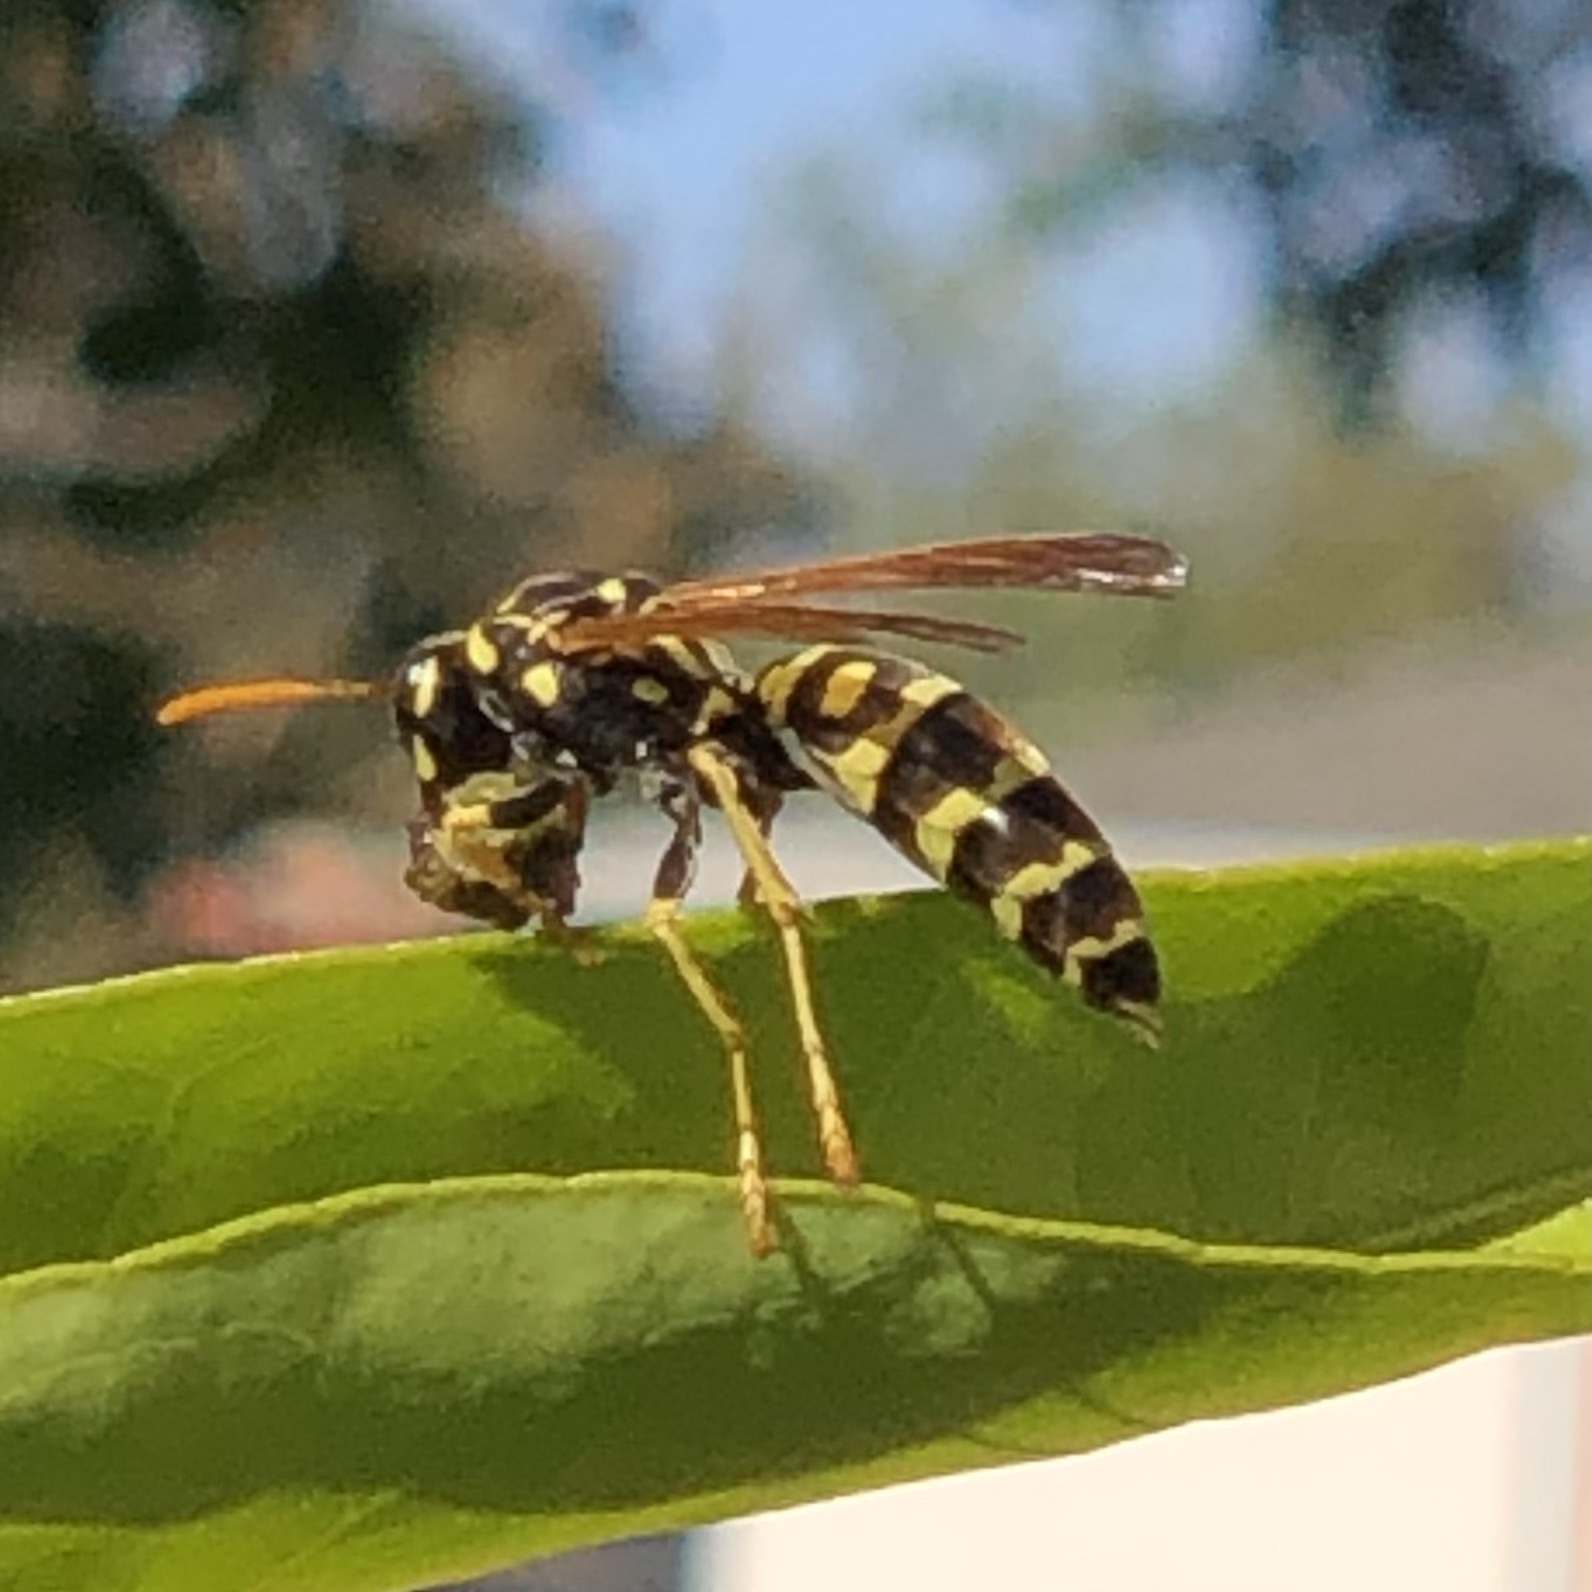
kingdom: Animalia
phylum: Arthropoda
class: Insecta
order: Hymenoptera
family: Eumenidae
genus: Polistes
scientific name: Polistes dominula
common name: Paper wasp
